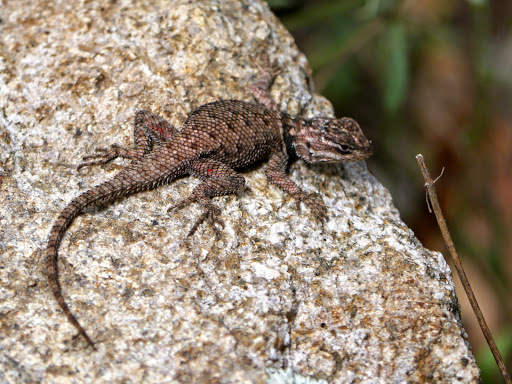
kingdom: Animalia
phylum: Chordata
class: Squamata
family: Phrynosomatidae
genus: Sceloporus
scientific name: Sceloporus jarrovii
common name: Yarrow's spiny lizard
